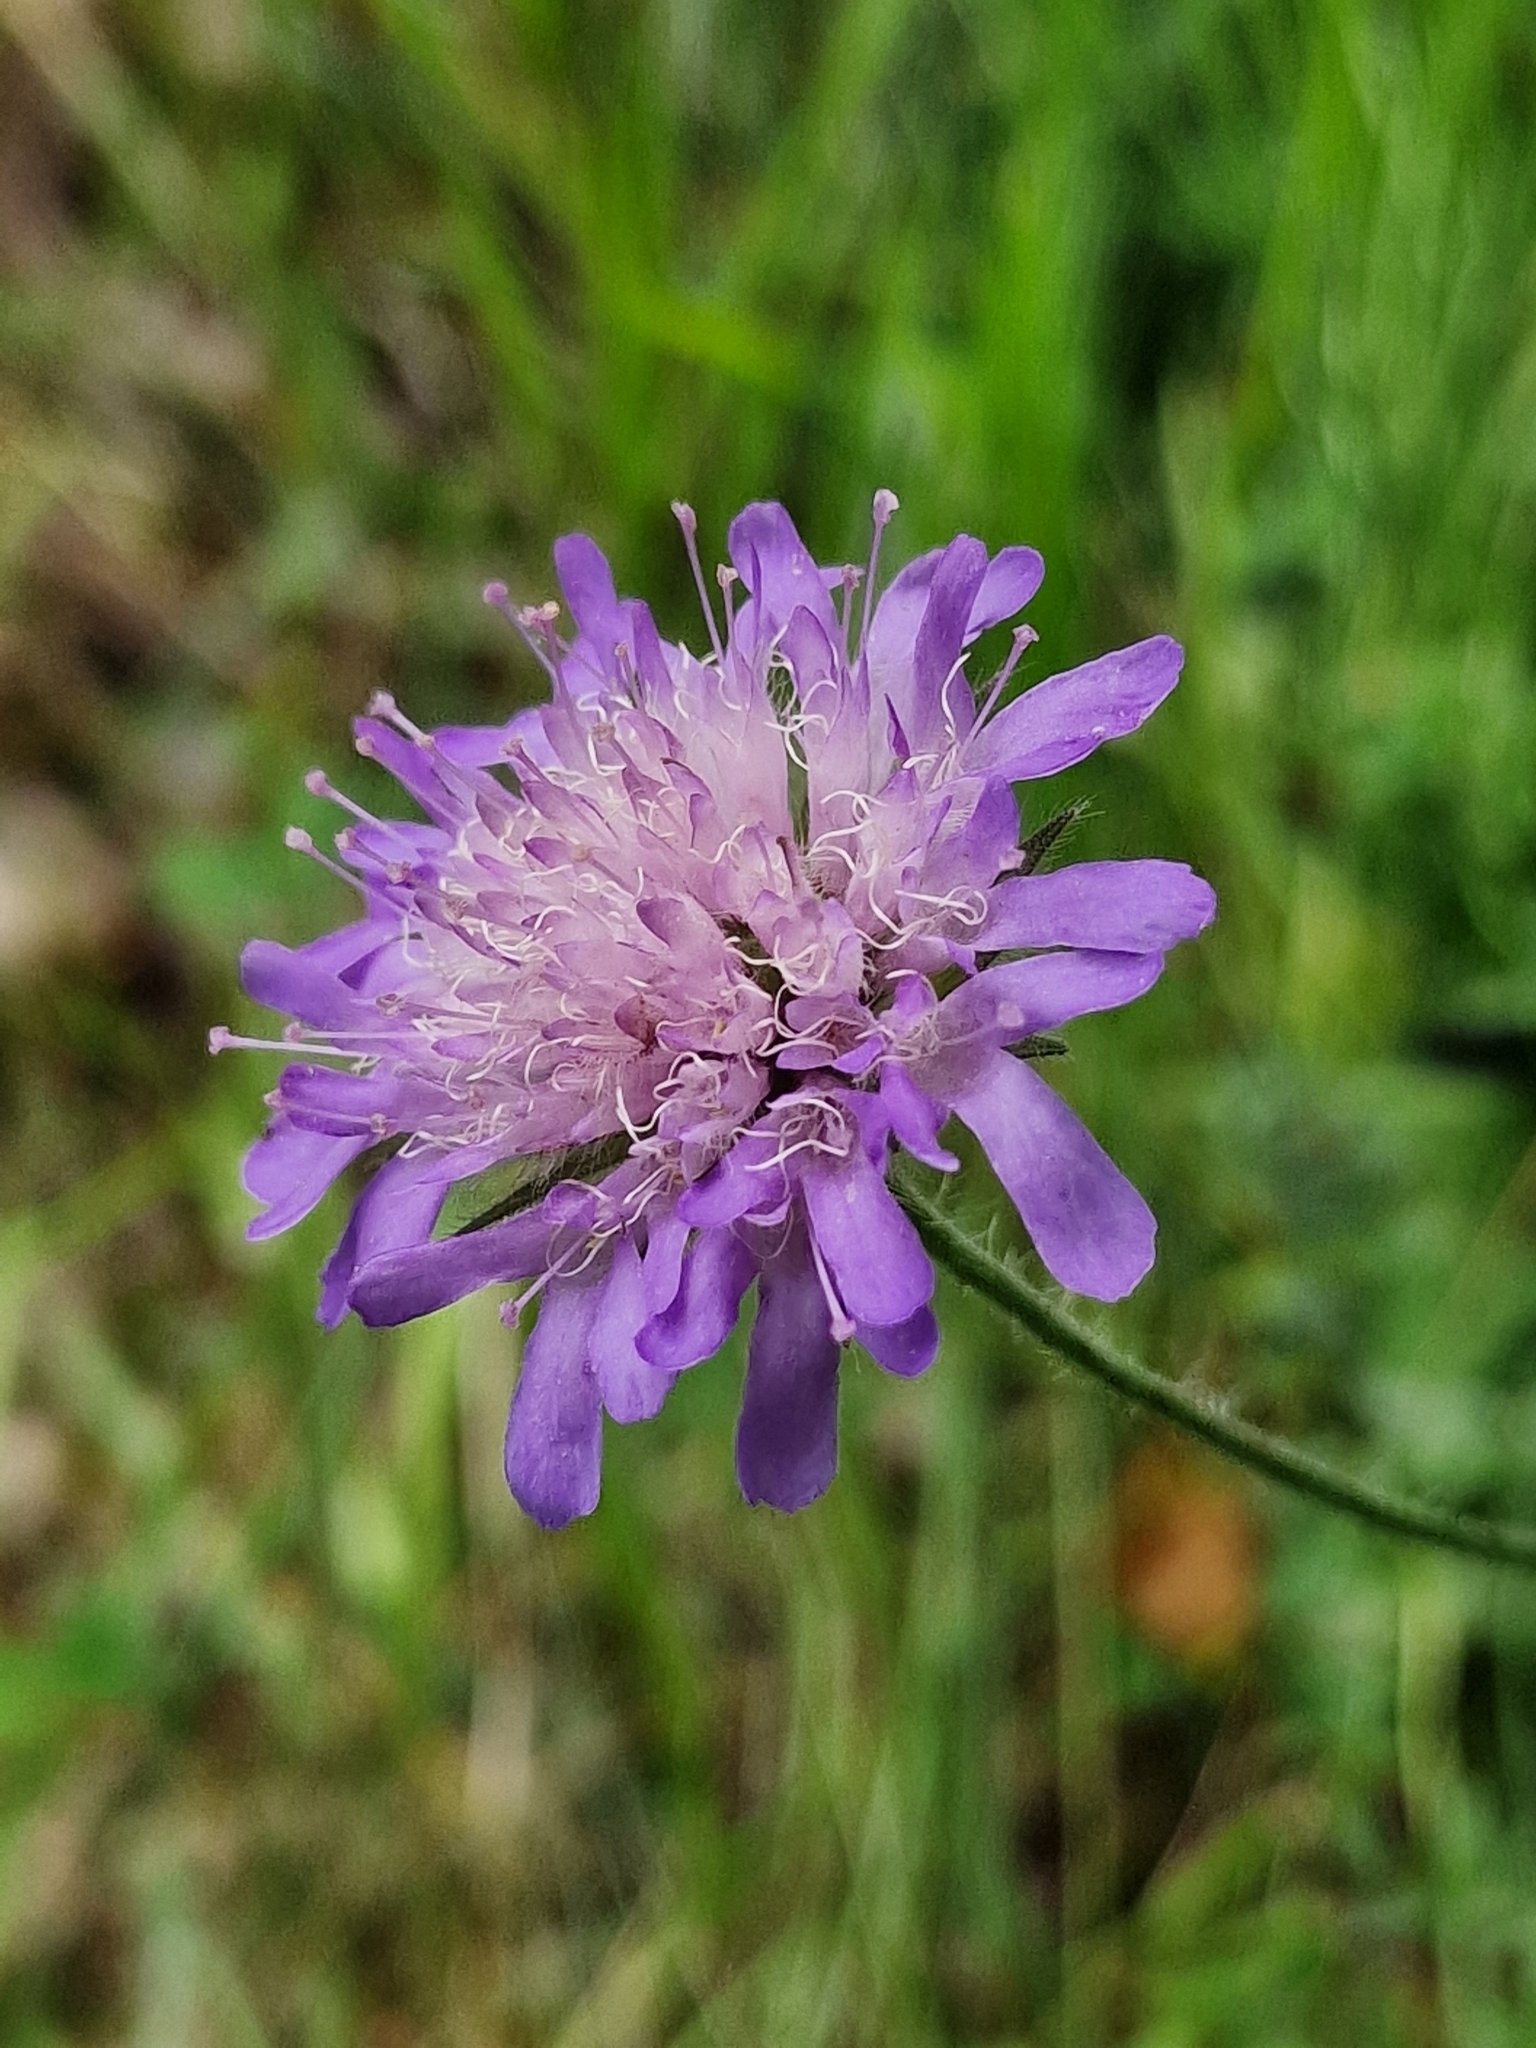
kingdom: Plantae
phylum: Tracheophyta
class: Magnoliopsida
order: Dipsacales
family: Caprifoliaceae
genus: Knautia
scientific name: Knautia arvensis
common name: Field scabiosa
